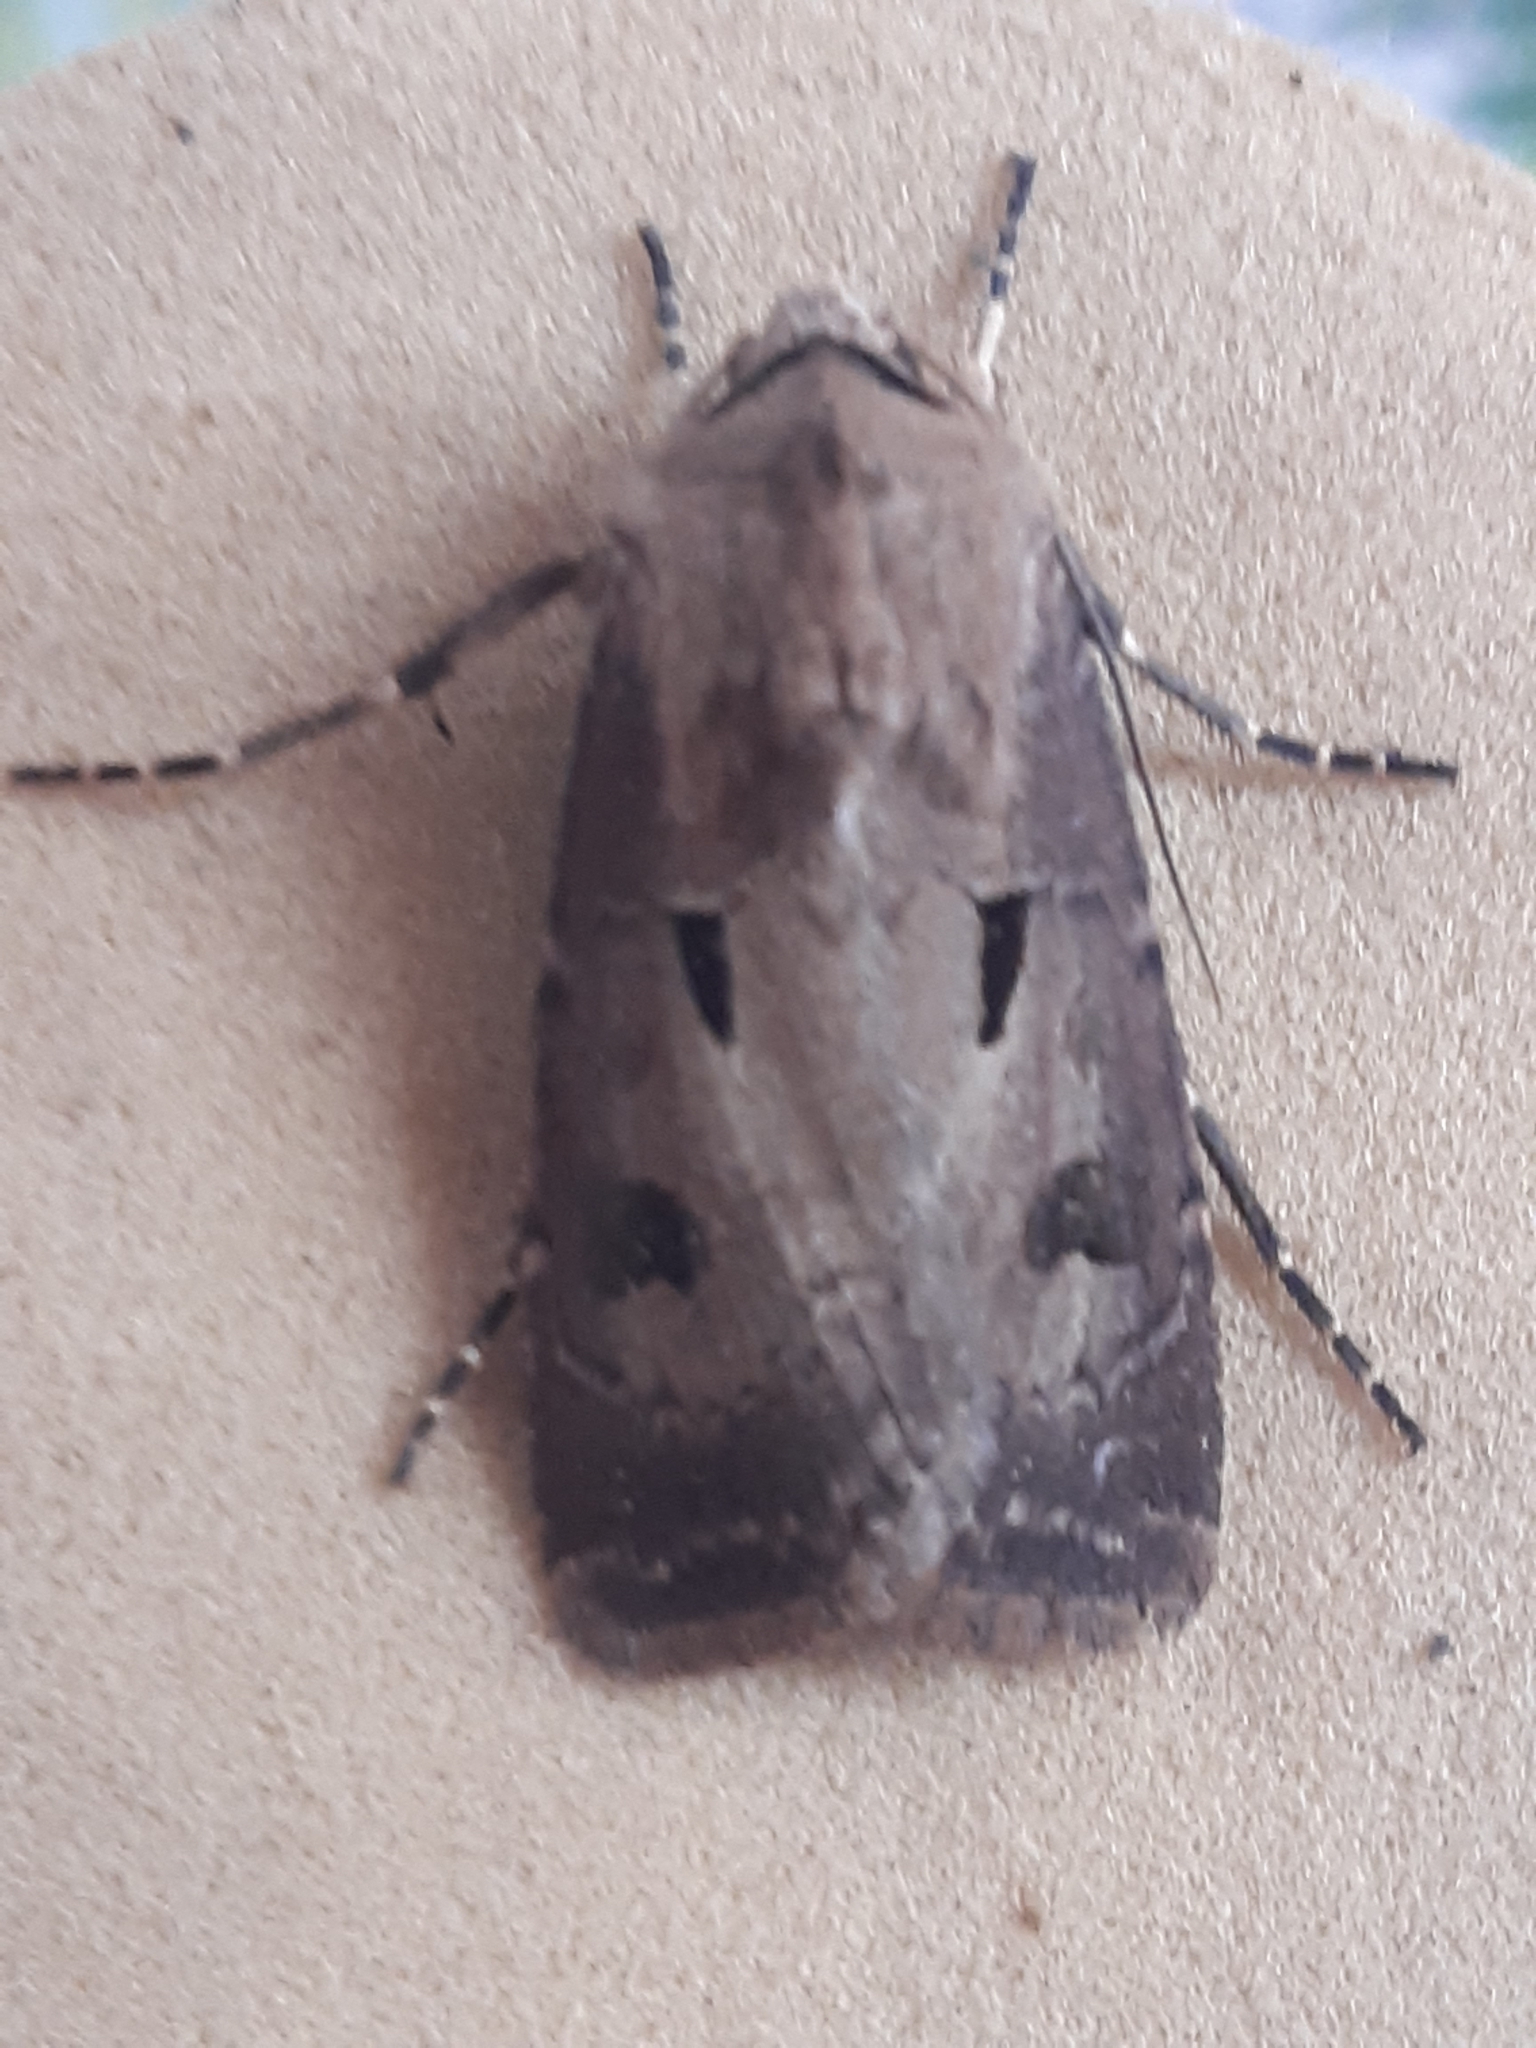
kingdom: Animalia
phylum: Arthropoda
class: Insecta
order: Lepidoptera
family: Noctuidae
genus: Agrotis
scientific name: Agrotis exclamationis
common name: Heart and dart
